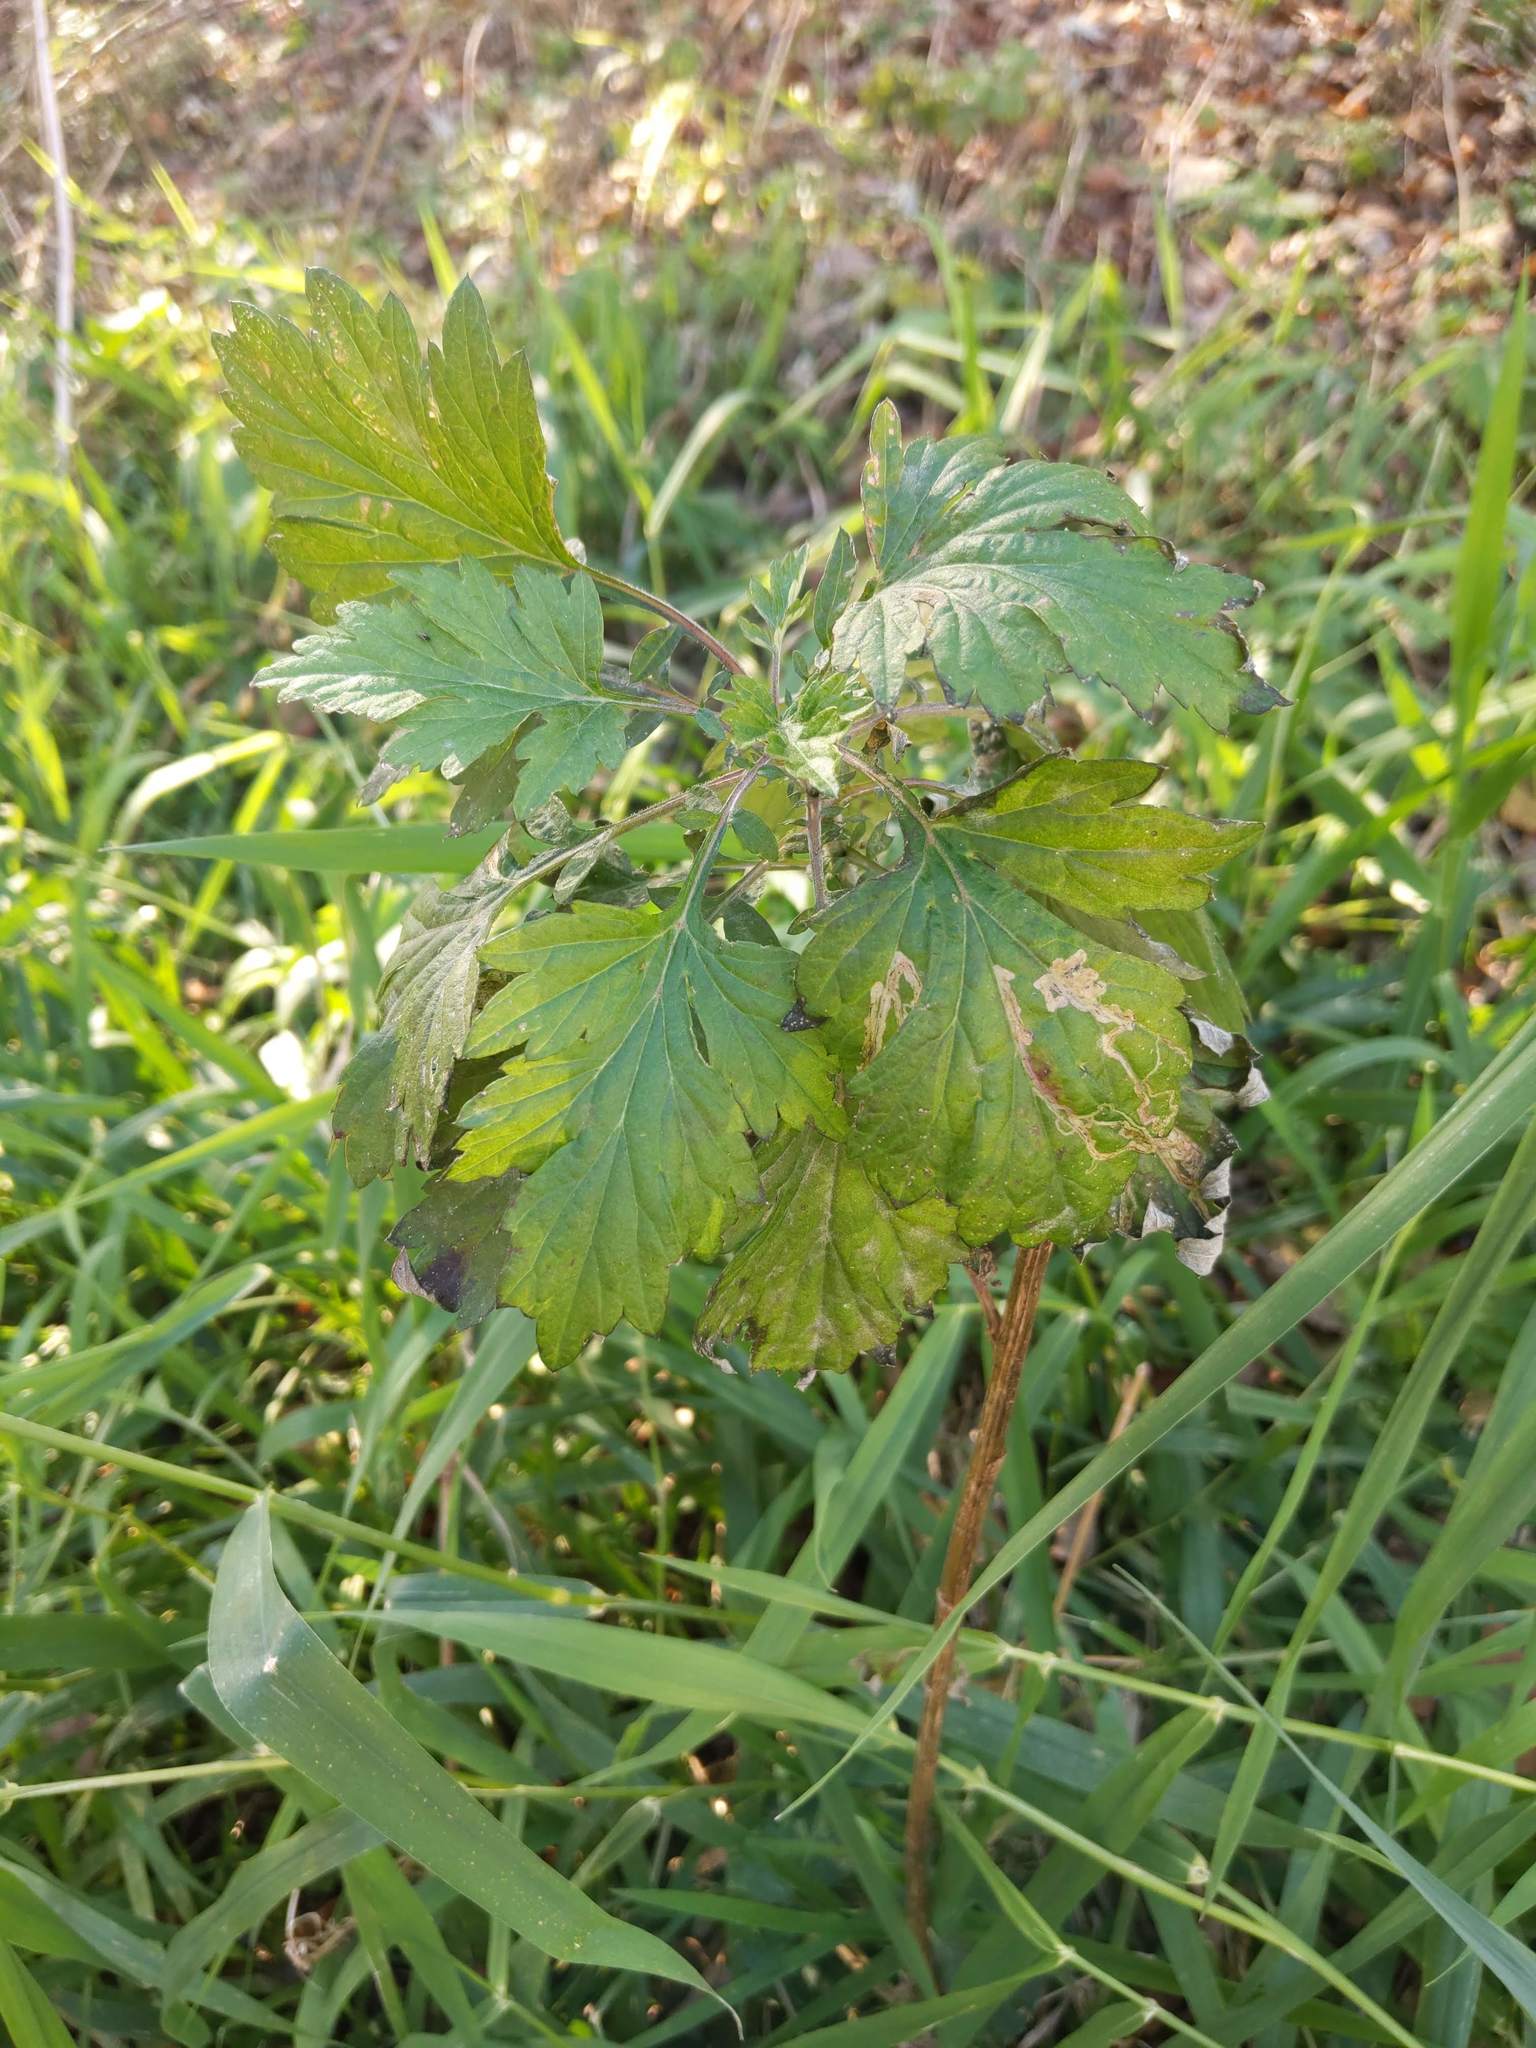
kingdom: Plantae
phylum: Tracheophyta
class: Magnoliopsida
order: Asterales
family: Asteraceae
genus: Artemisia
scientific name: Artemisia vulgaris
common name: Mugwort
